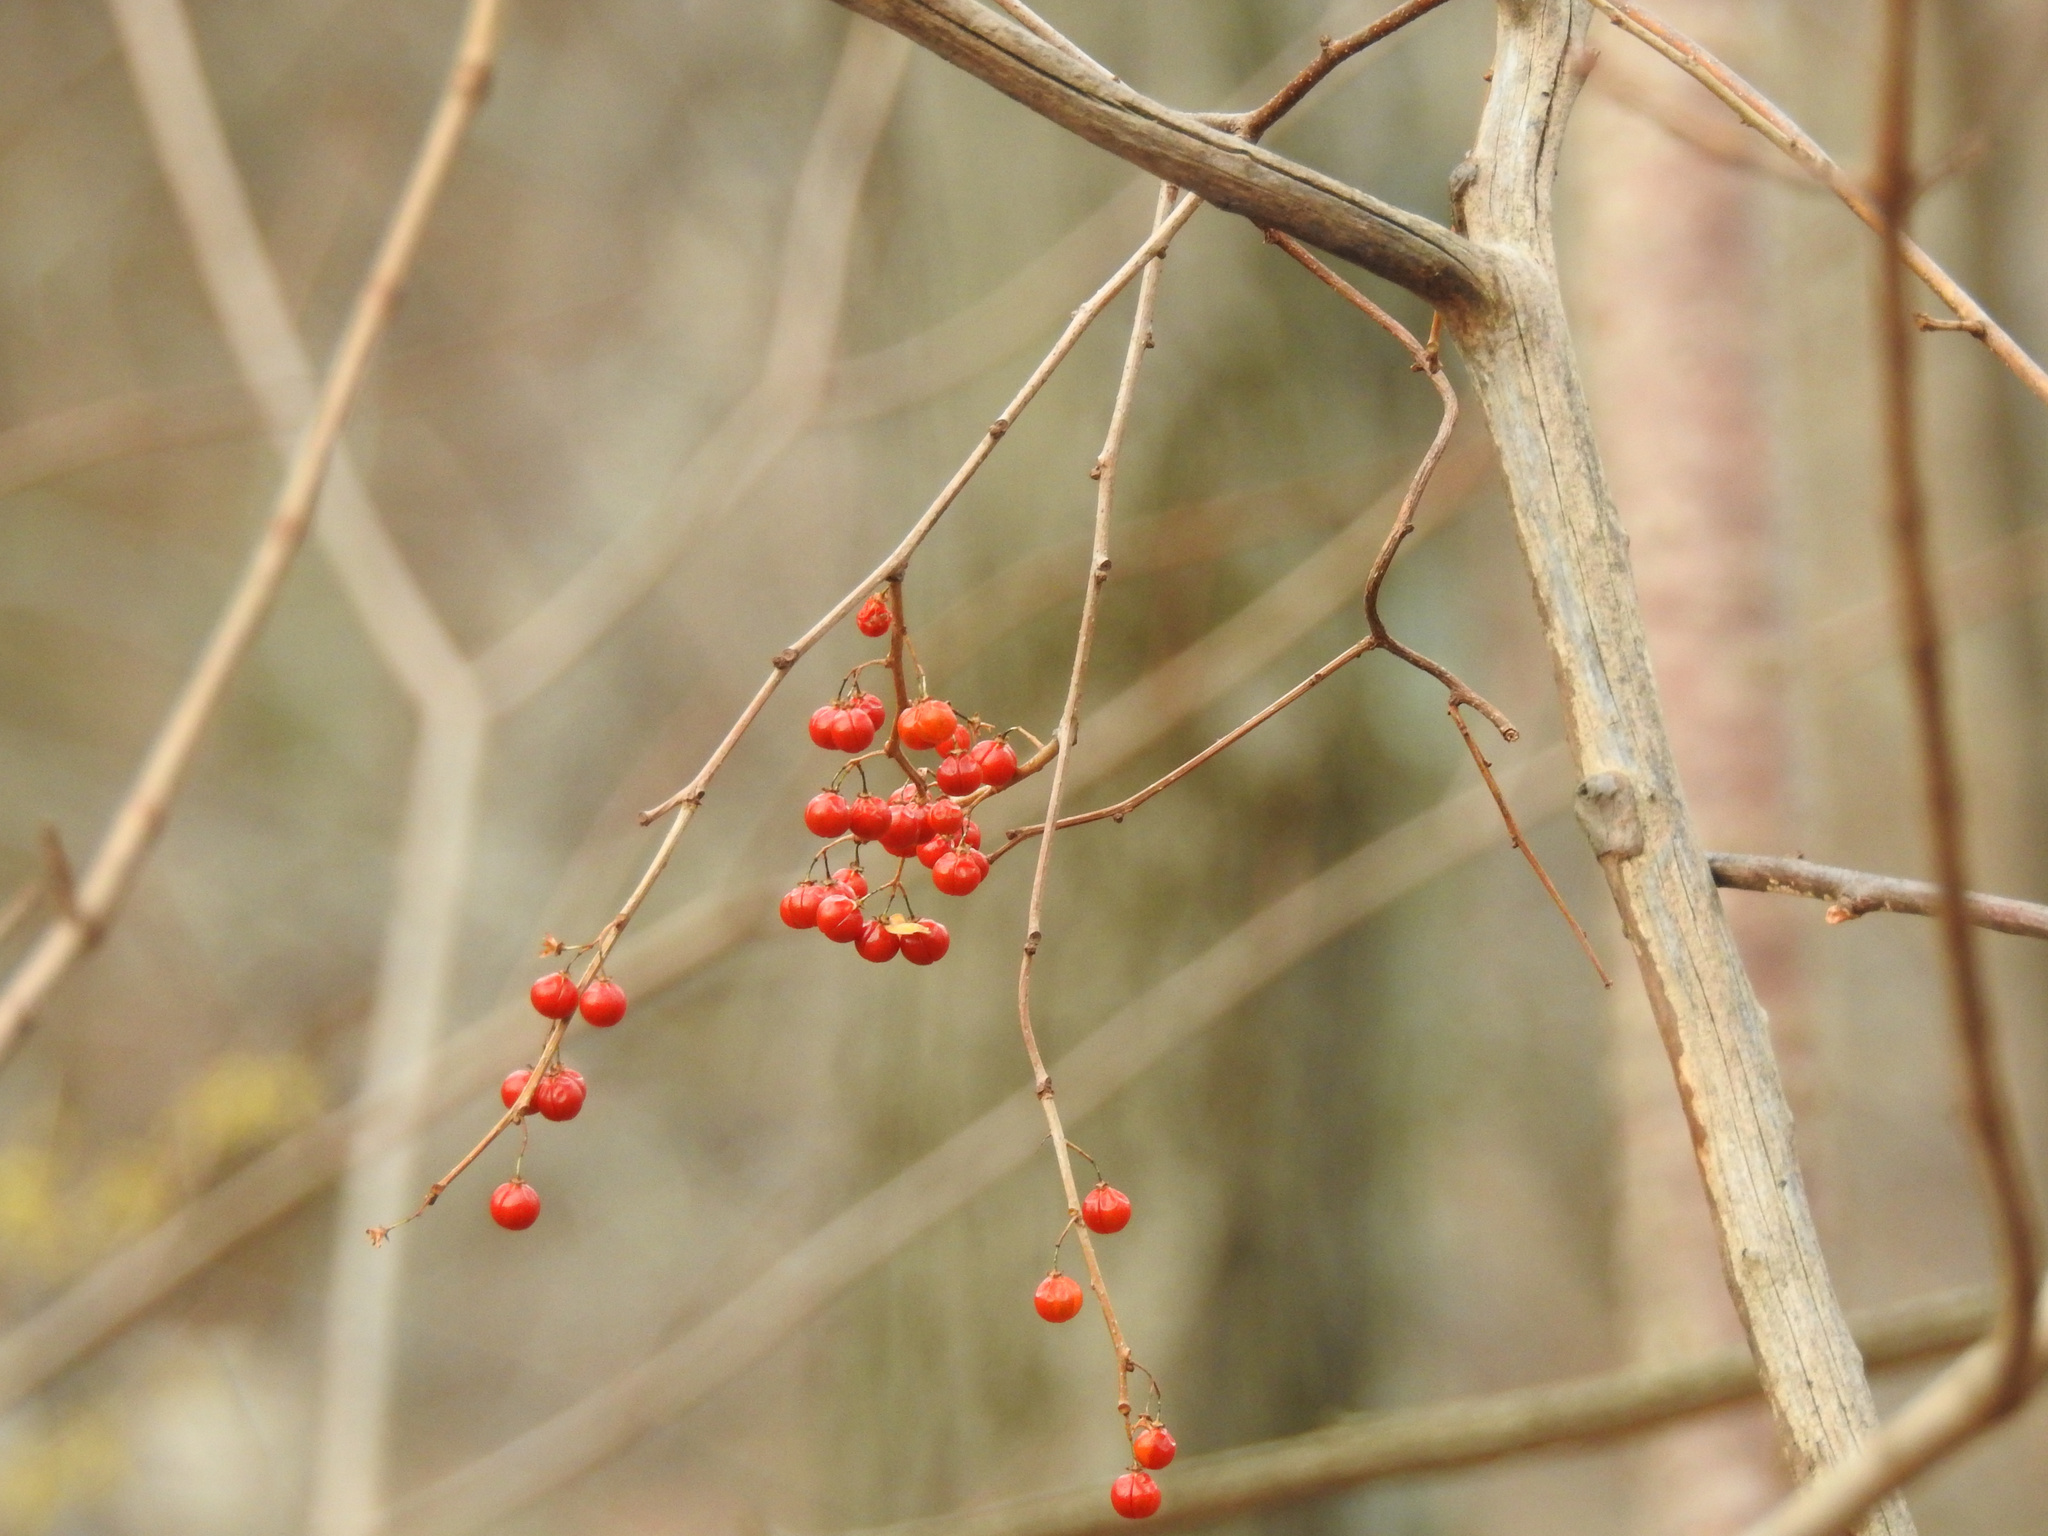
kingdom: Plantae
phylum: Tracheophyta
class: Magnoliopsida
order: Aquifoliales
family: Aquifoliaceae
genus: Ilex
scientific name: Ilex verticillata
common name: Virginia winterberry
